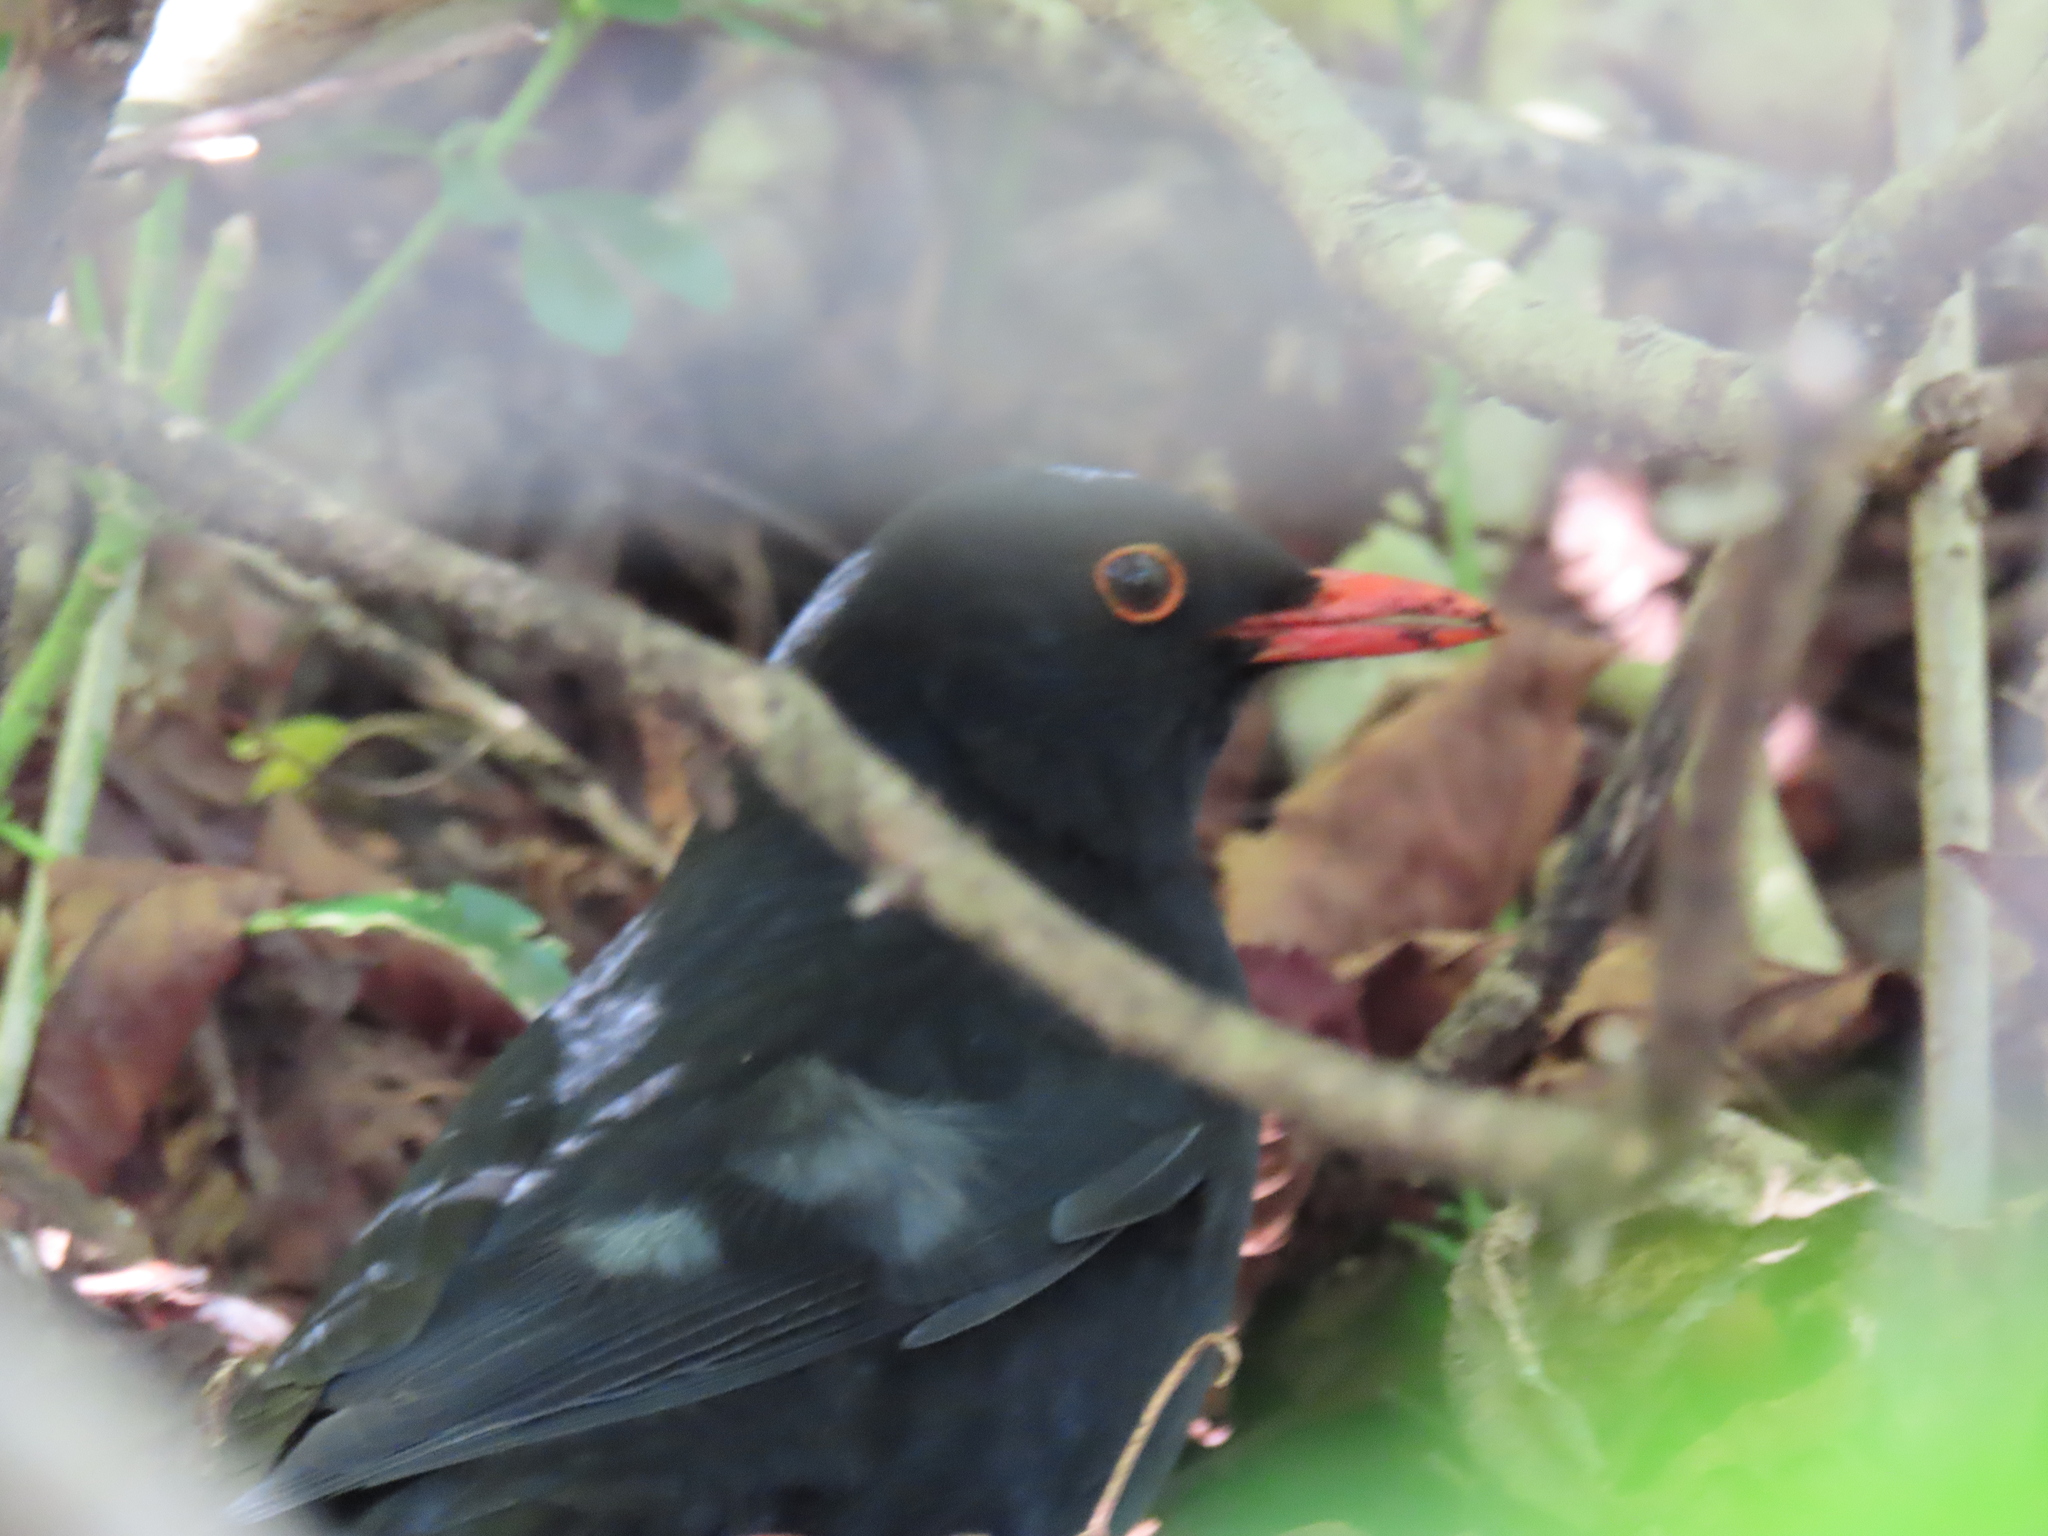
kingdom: Animalia
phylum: Chordata
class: Aves
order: Passeriformes
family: Turdidae
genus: Turdus
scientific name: Turdus merula
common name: Common blackbird
